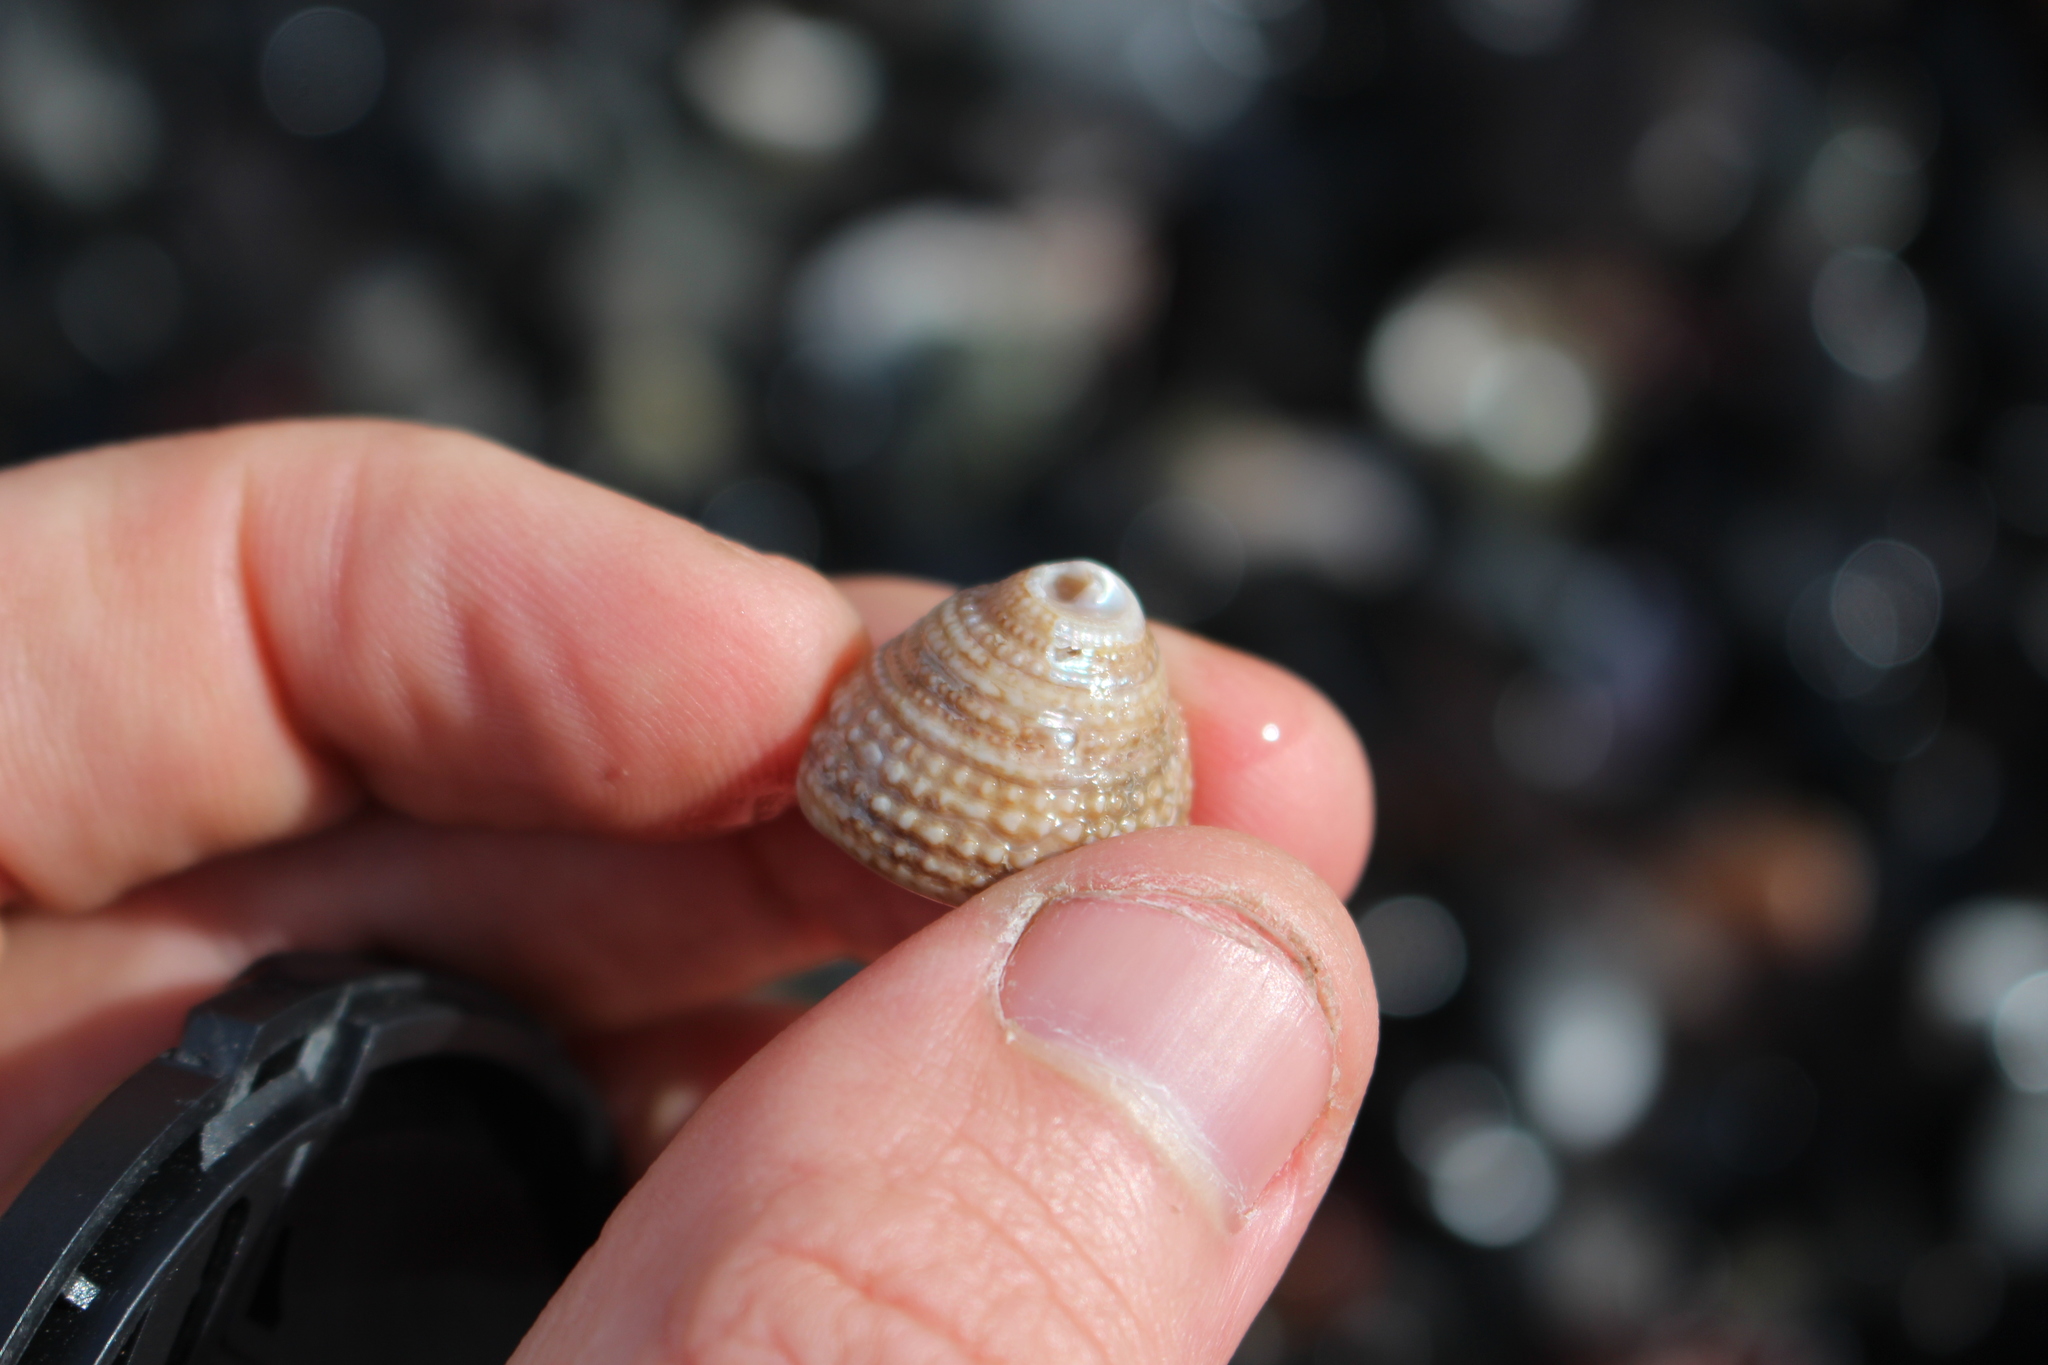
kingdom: Animalia
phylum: Mollusca
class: Gastropoda
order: Trochida
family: Trochidae
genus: Coelotrochus
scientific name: Coelotrochus viridis
